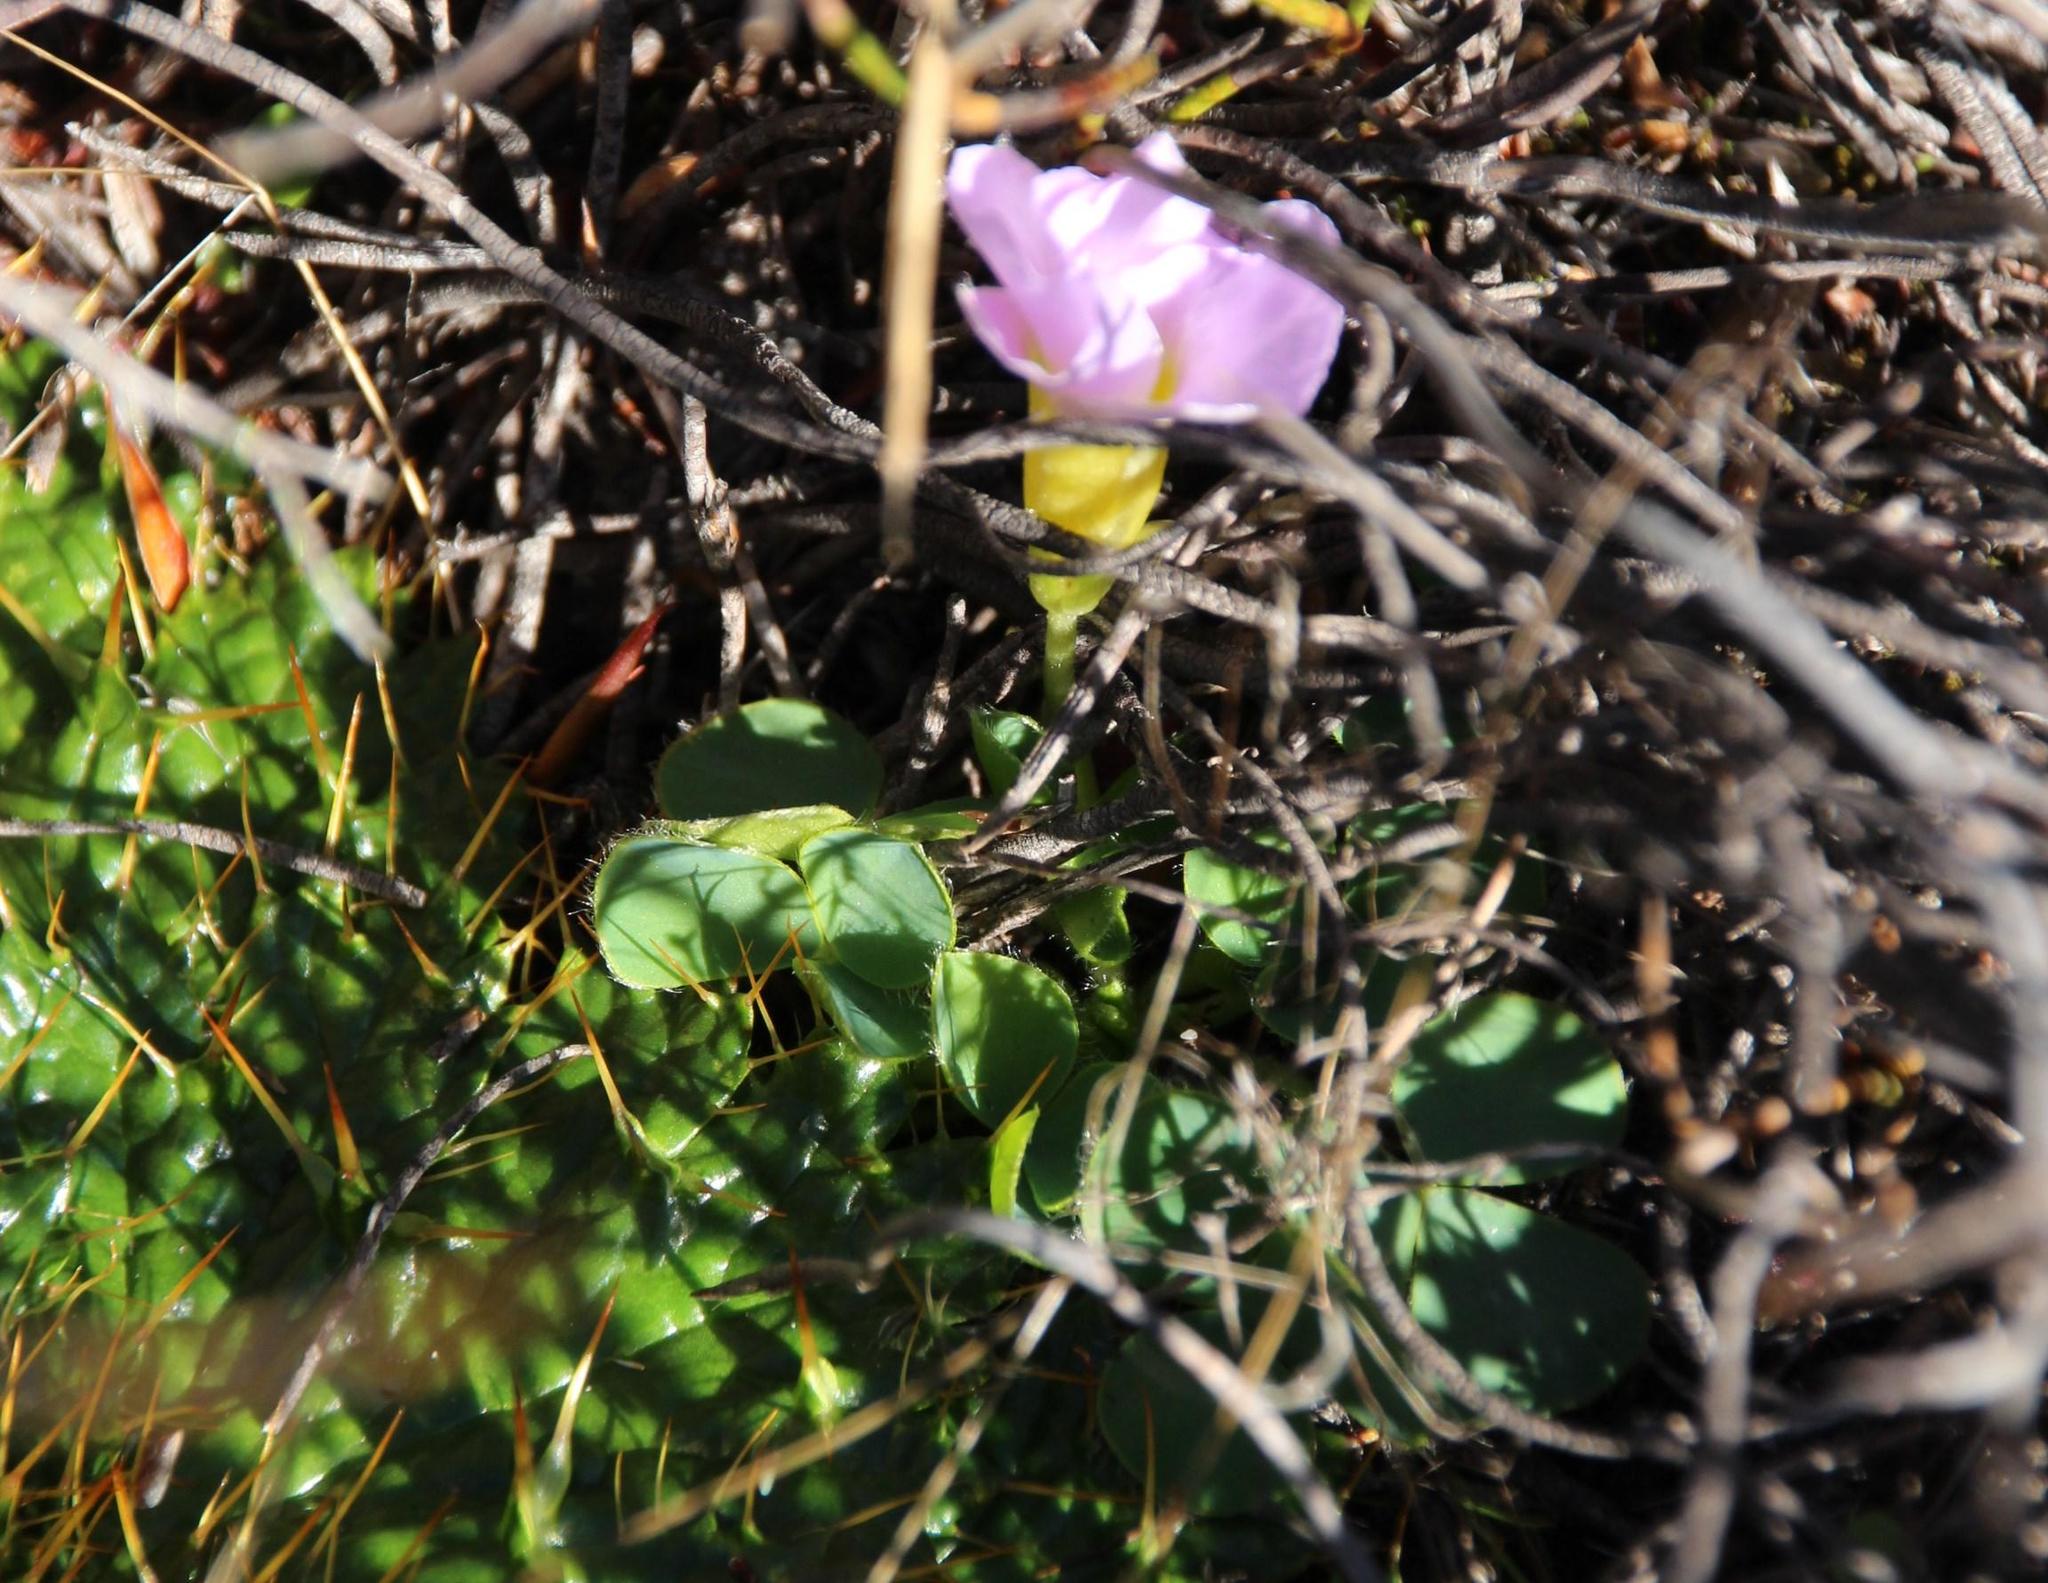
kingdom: Plantae
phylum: Tracheophyta
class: Magnoliopsida
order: Oxalidales
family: Oxalidaceae
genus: Oxalis
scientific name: Oxalis purpurea
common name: Purple woodsorrel
